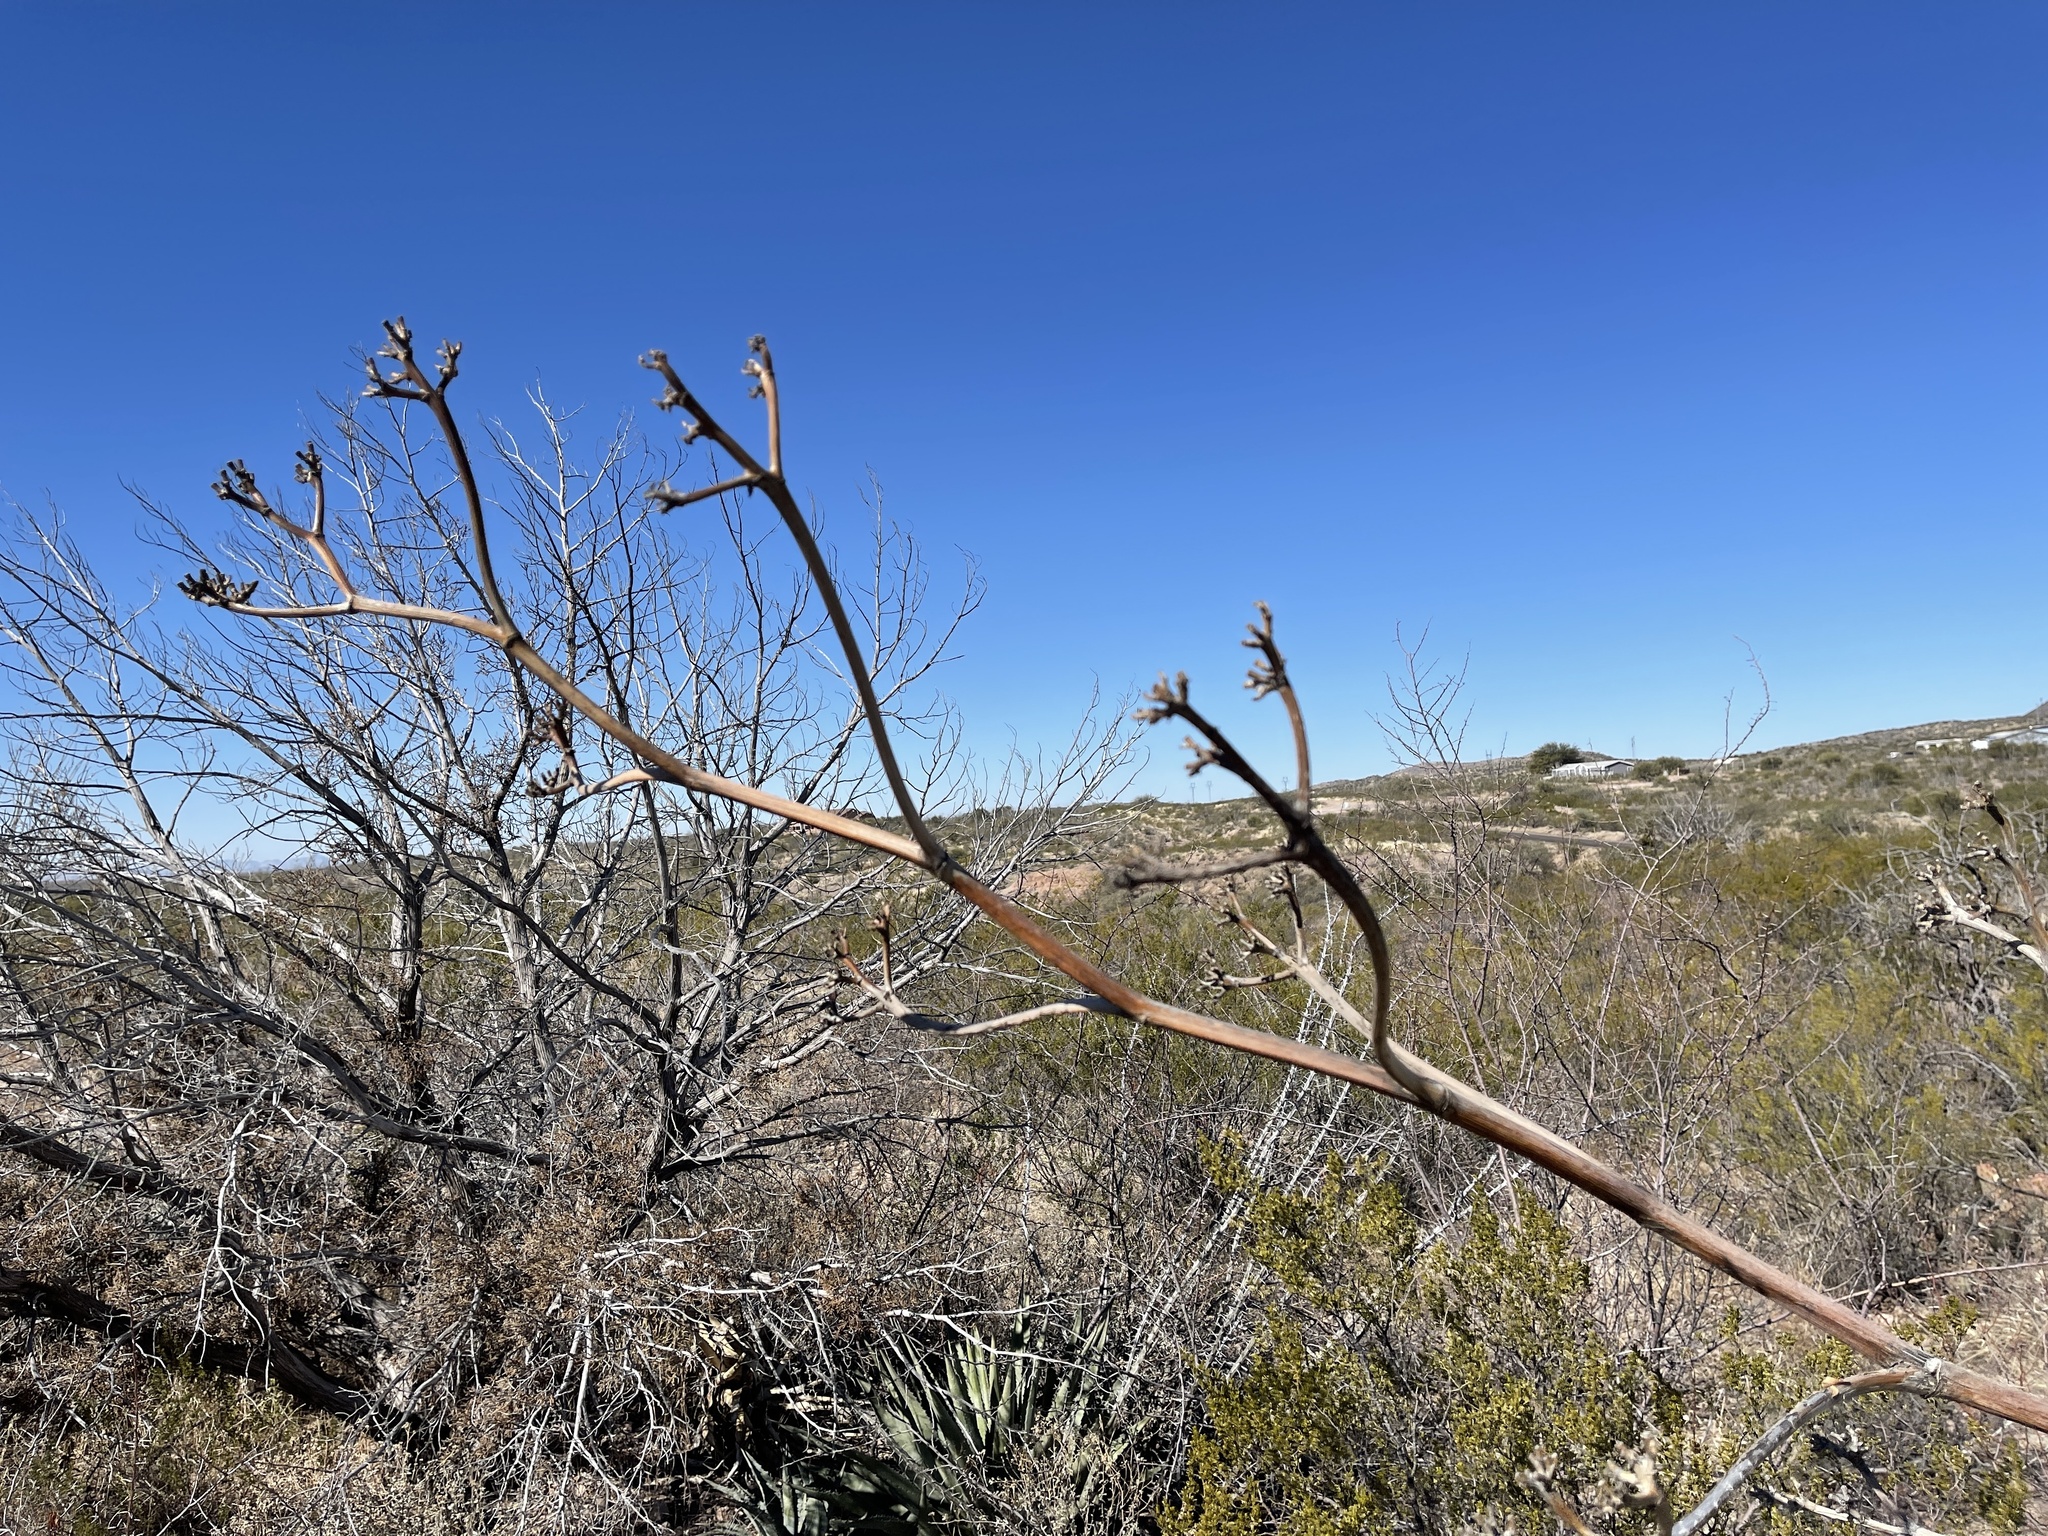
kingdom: Plantae
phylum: Tracheophyta
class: Liliopsida
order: Asparagales
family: Asparagaceae
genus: Agave
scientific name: Agave palmeri
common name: Palmer agave
